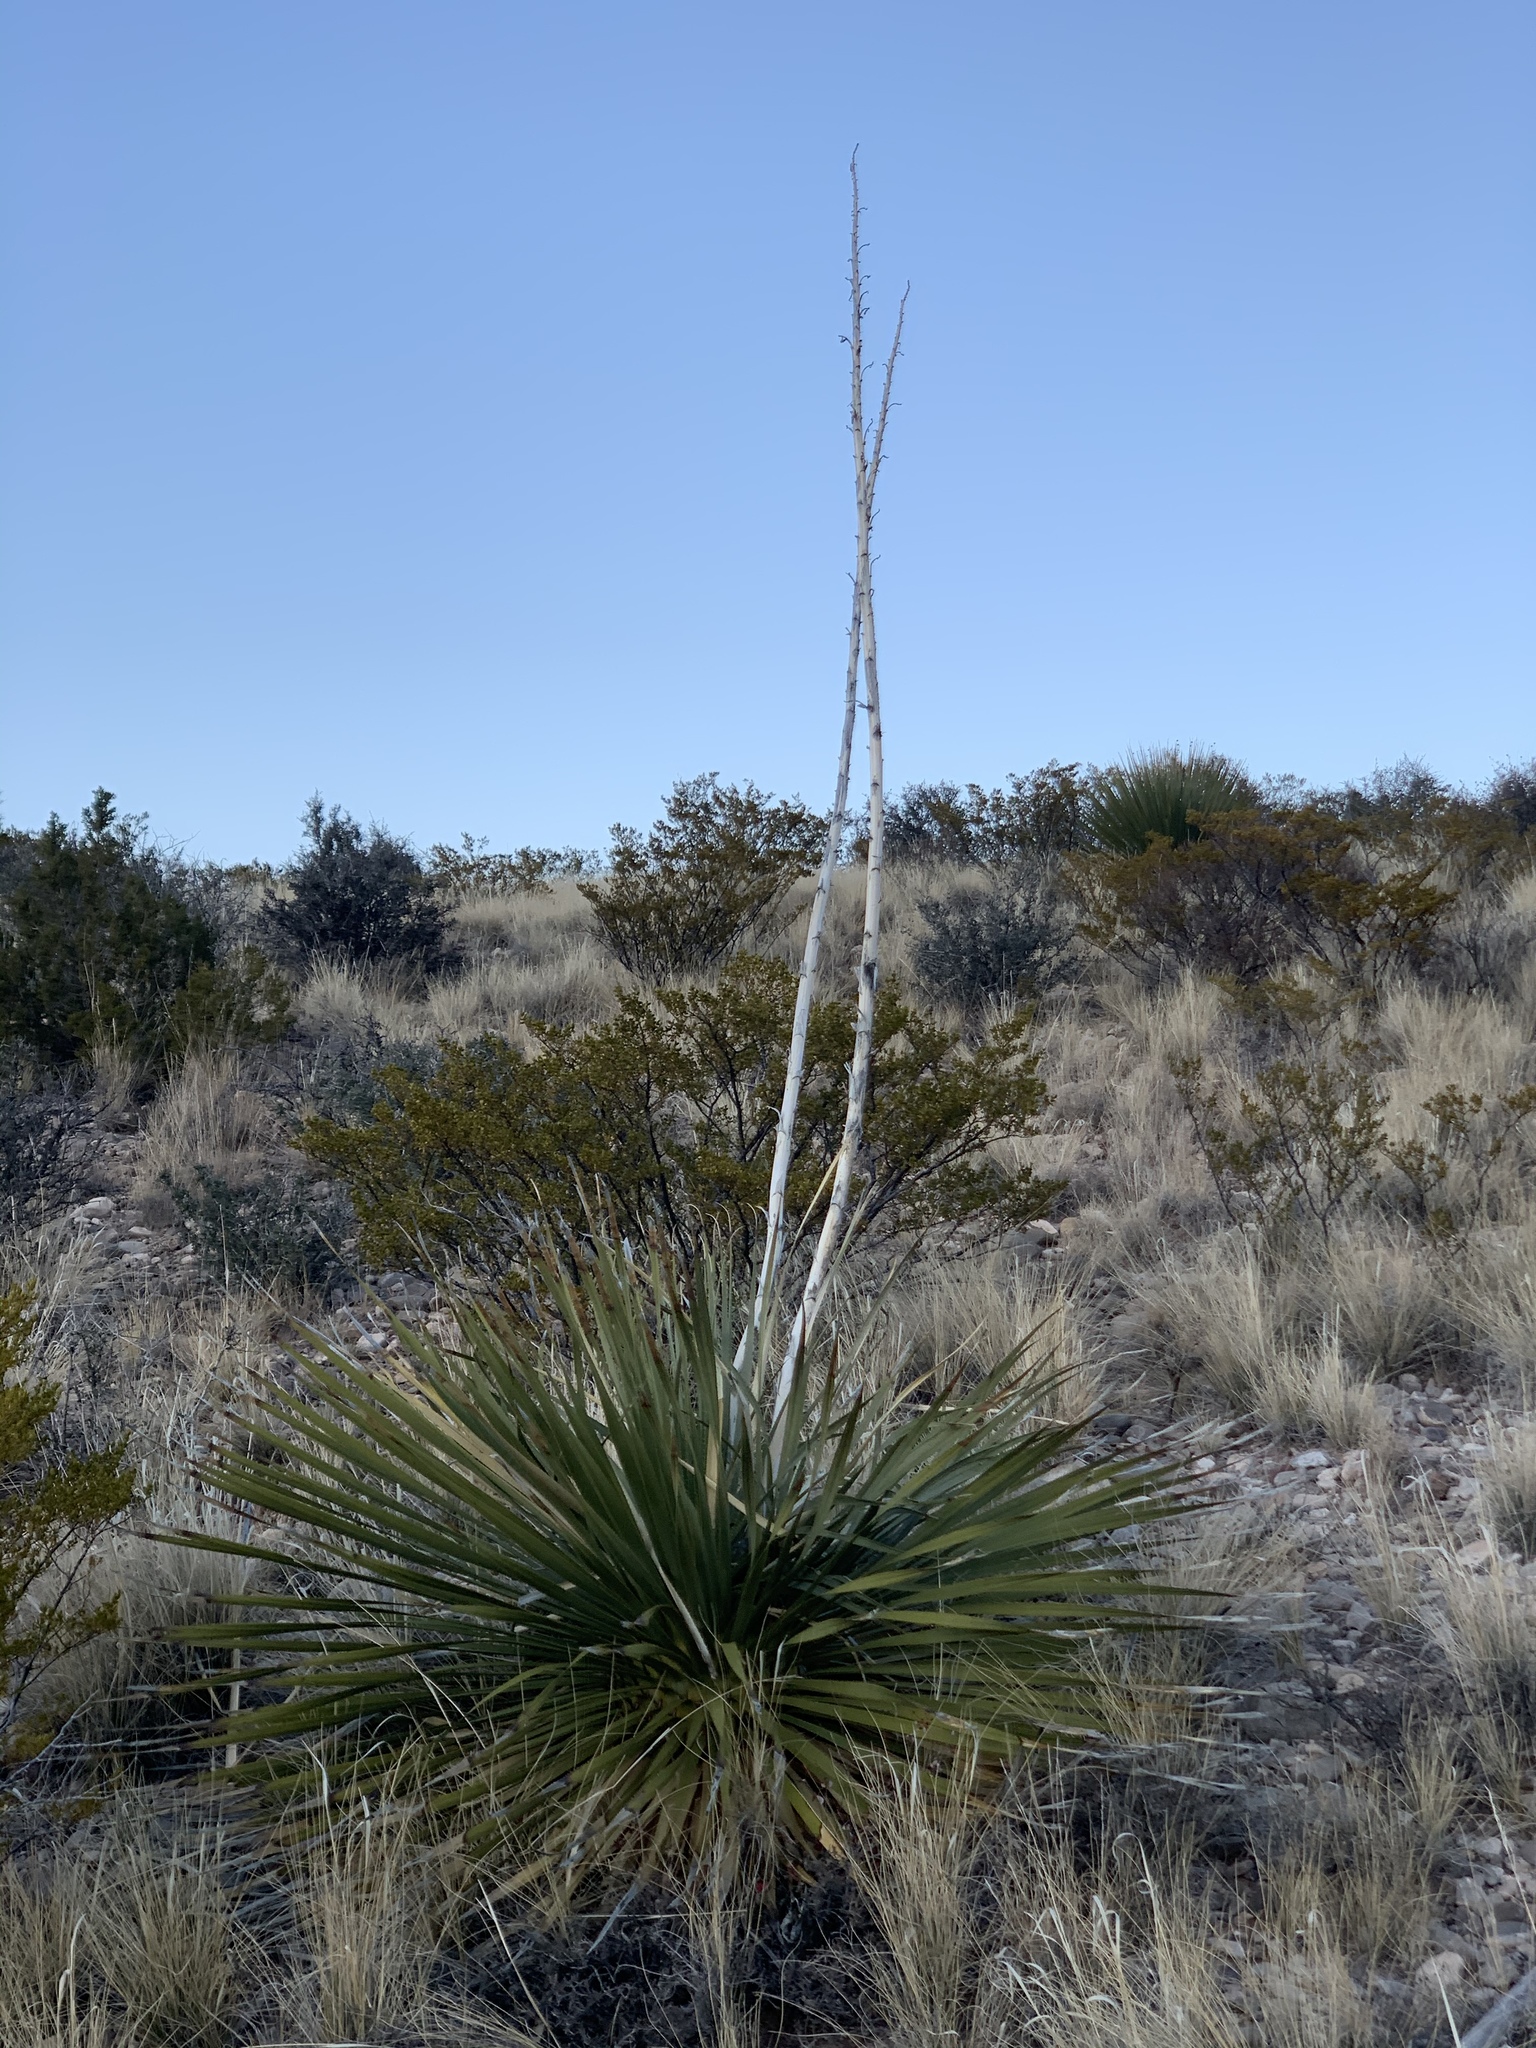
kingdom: Plantae
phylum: Tracheophyta
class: Liliopsida
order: Asparagales
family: Asparagaceae
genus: Dasylirion
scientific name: Dasylirion wheeleri
